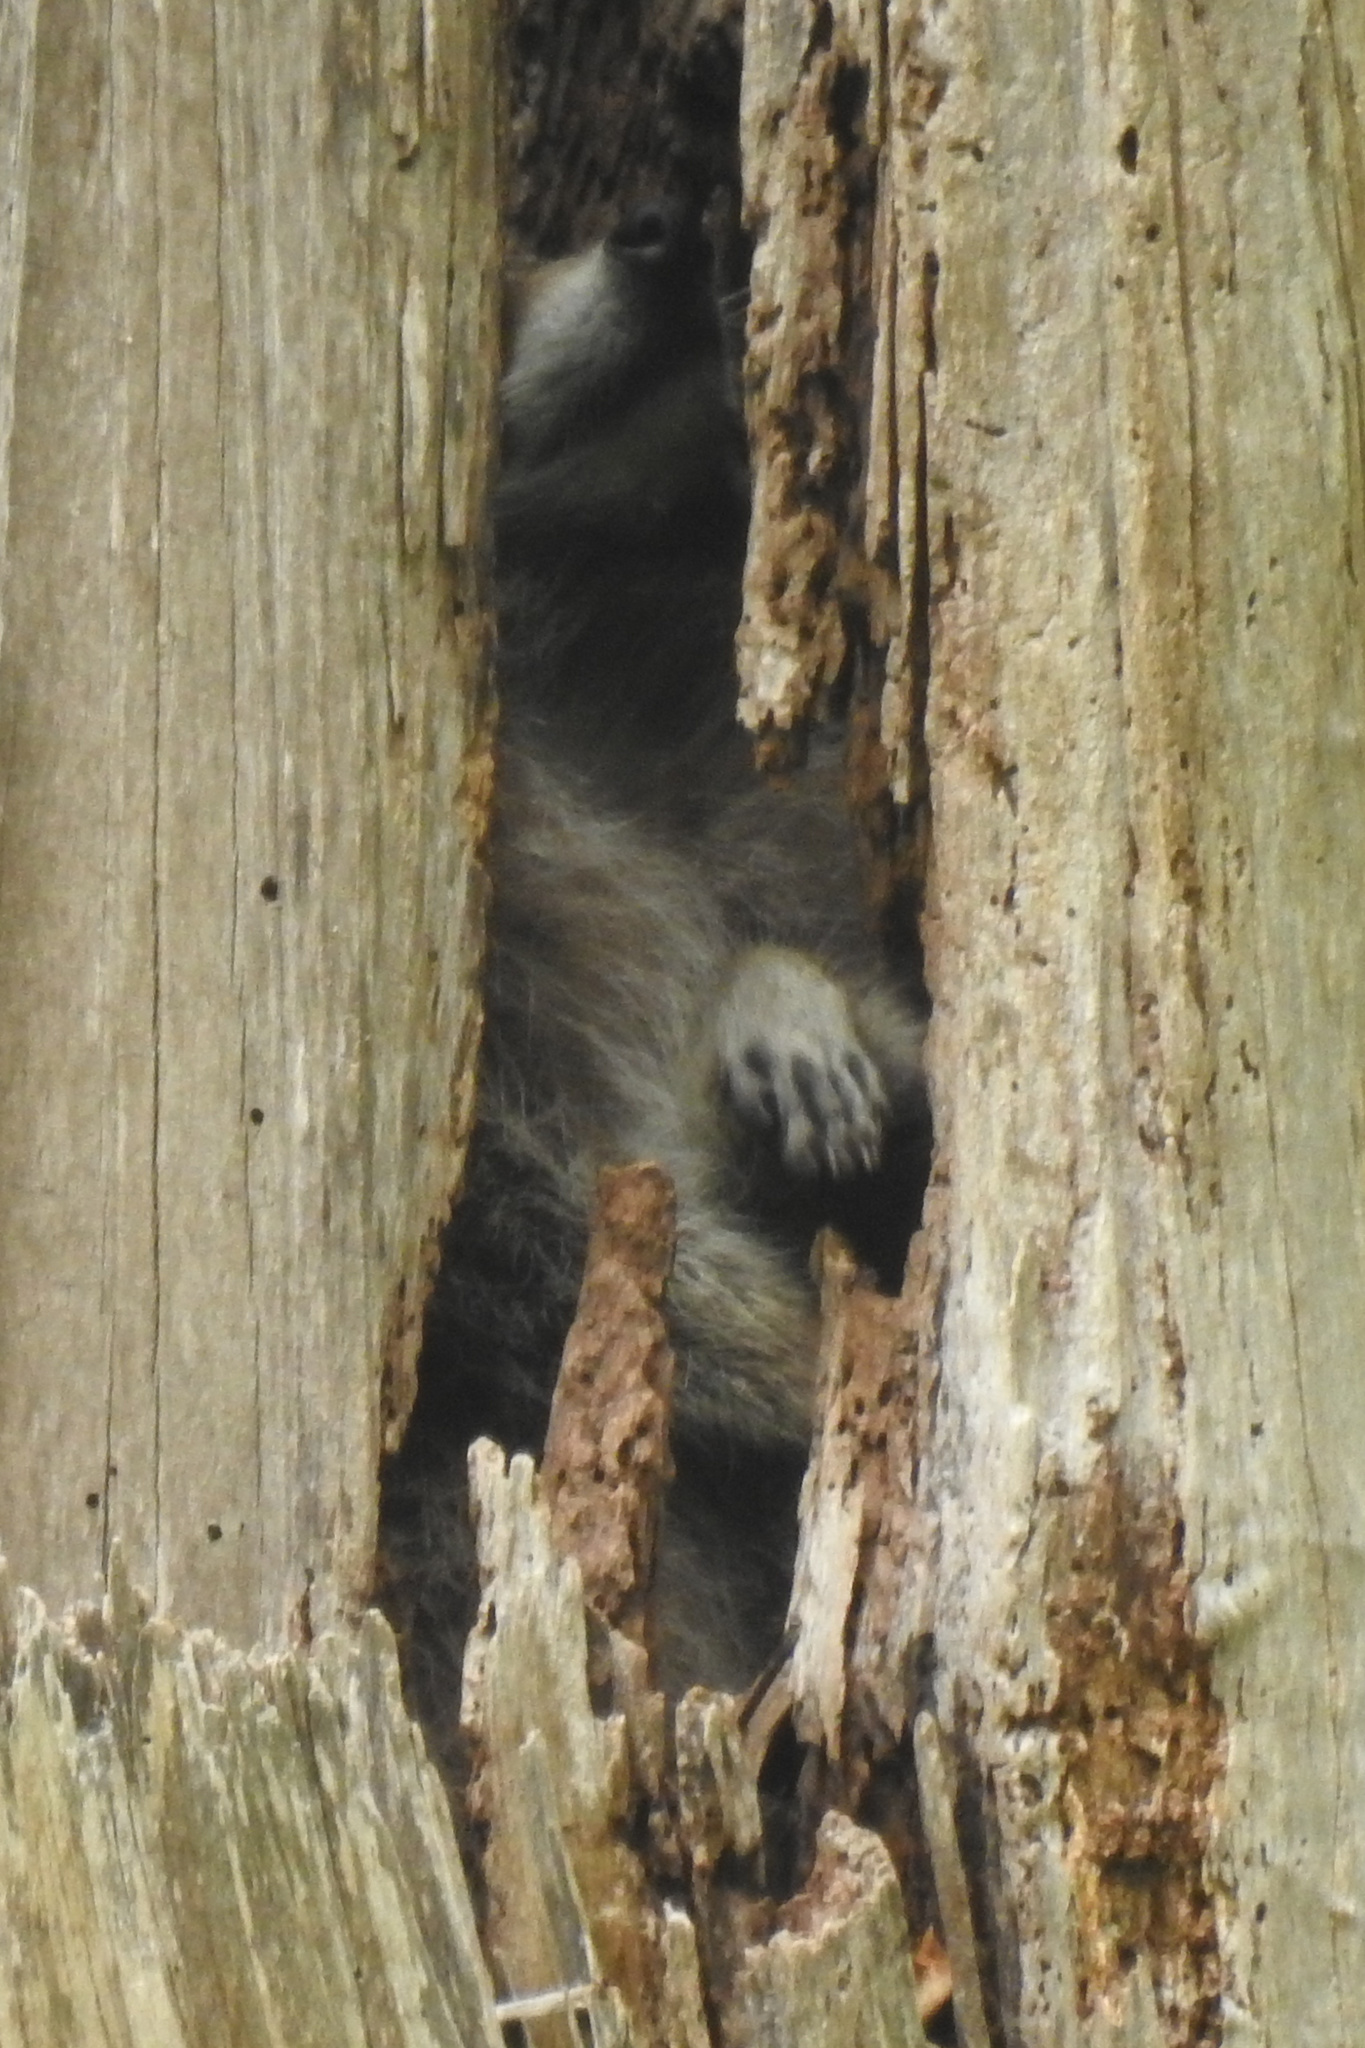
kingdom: Animalia
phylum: Chordata
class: Mammalia
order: Carnivora
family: Procyonidae
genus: Procyon
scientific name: Procyon lotor
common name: Raccoon
